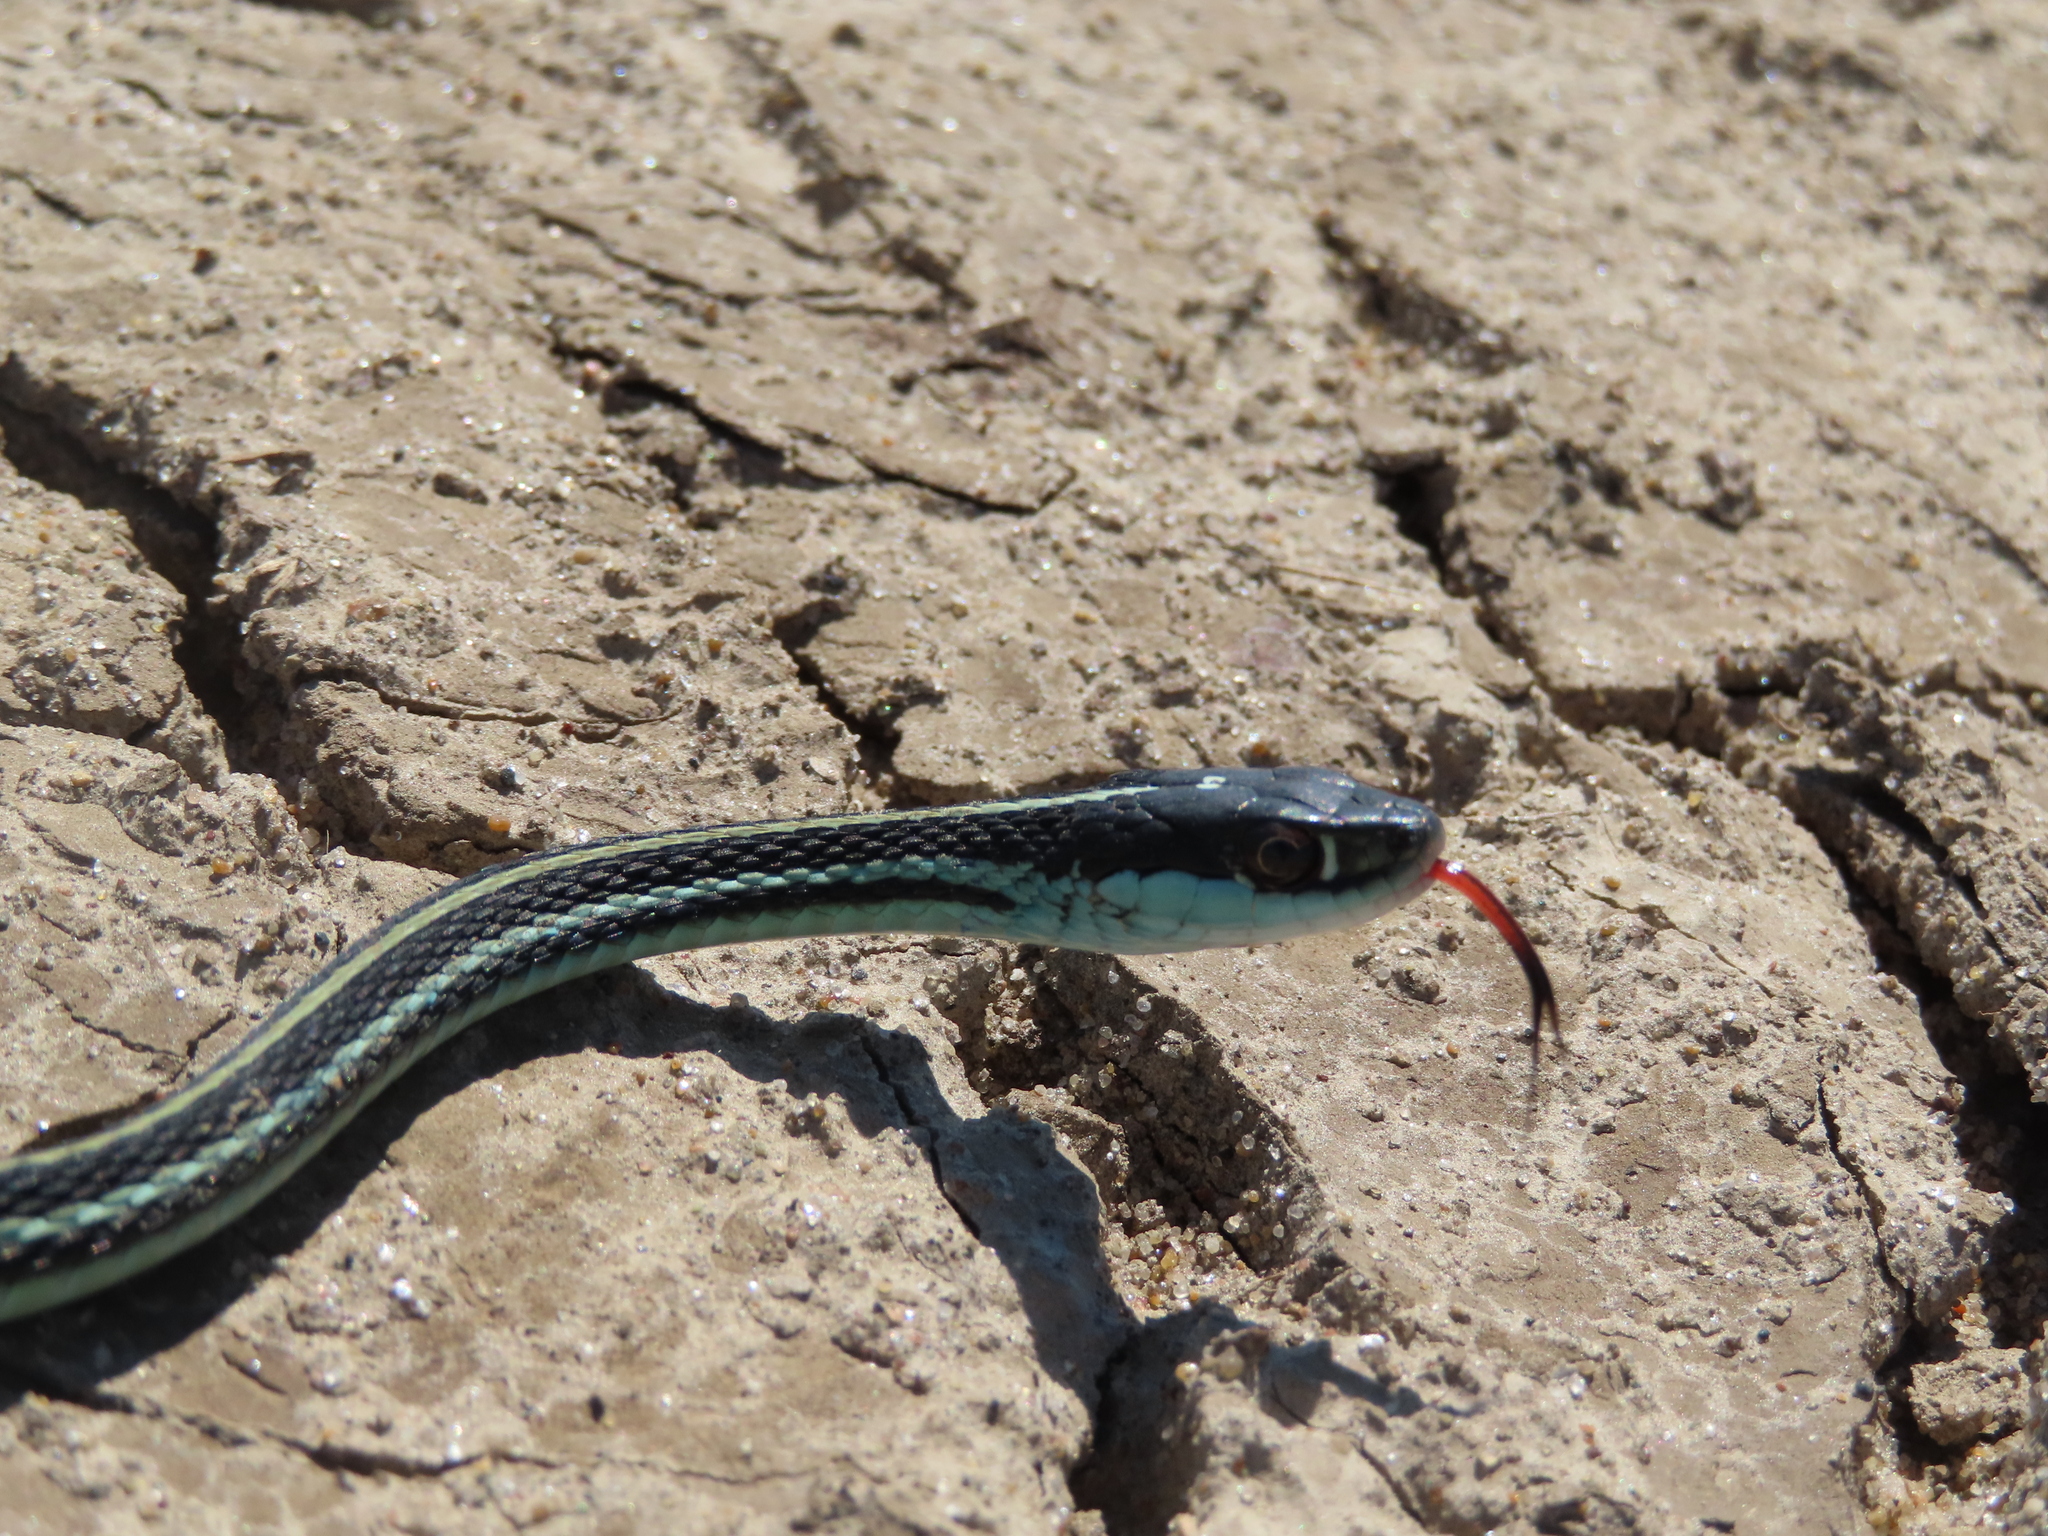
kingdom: Animalia
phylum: Chordata
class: Squamata
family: Colubridae
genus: Thamnophis
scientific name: Thamnophis proximus
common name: Western ribbon snake
